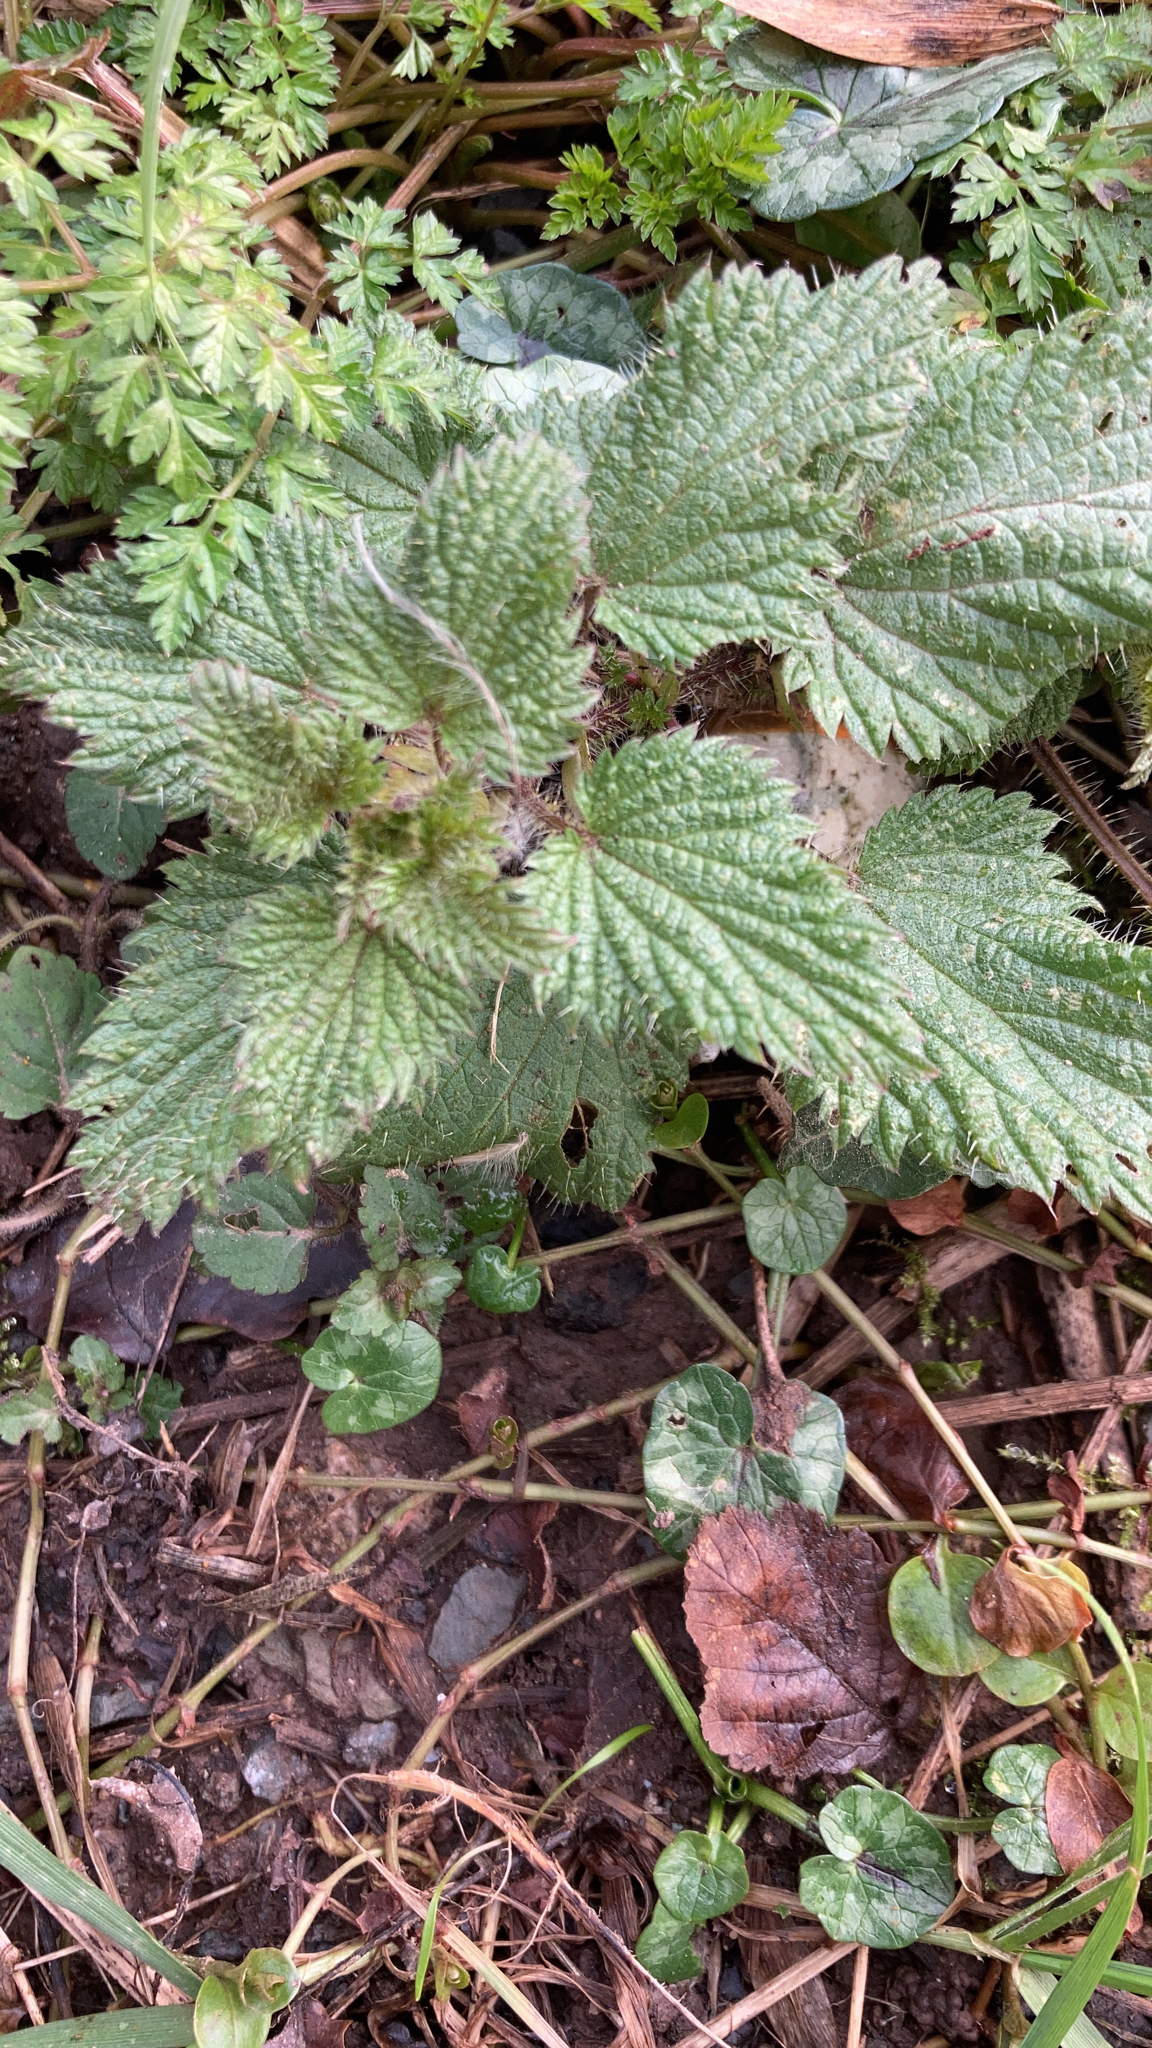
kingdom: Plantae
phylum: Tracheophyta
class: Magnoliopsida
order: Rosales
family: Urticaceae
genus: Urtica
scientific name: Urtica dioica
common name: Common nettle
